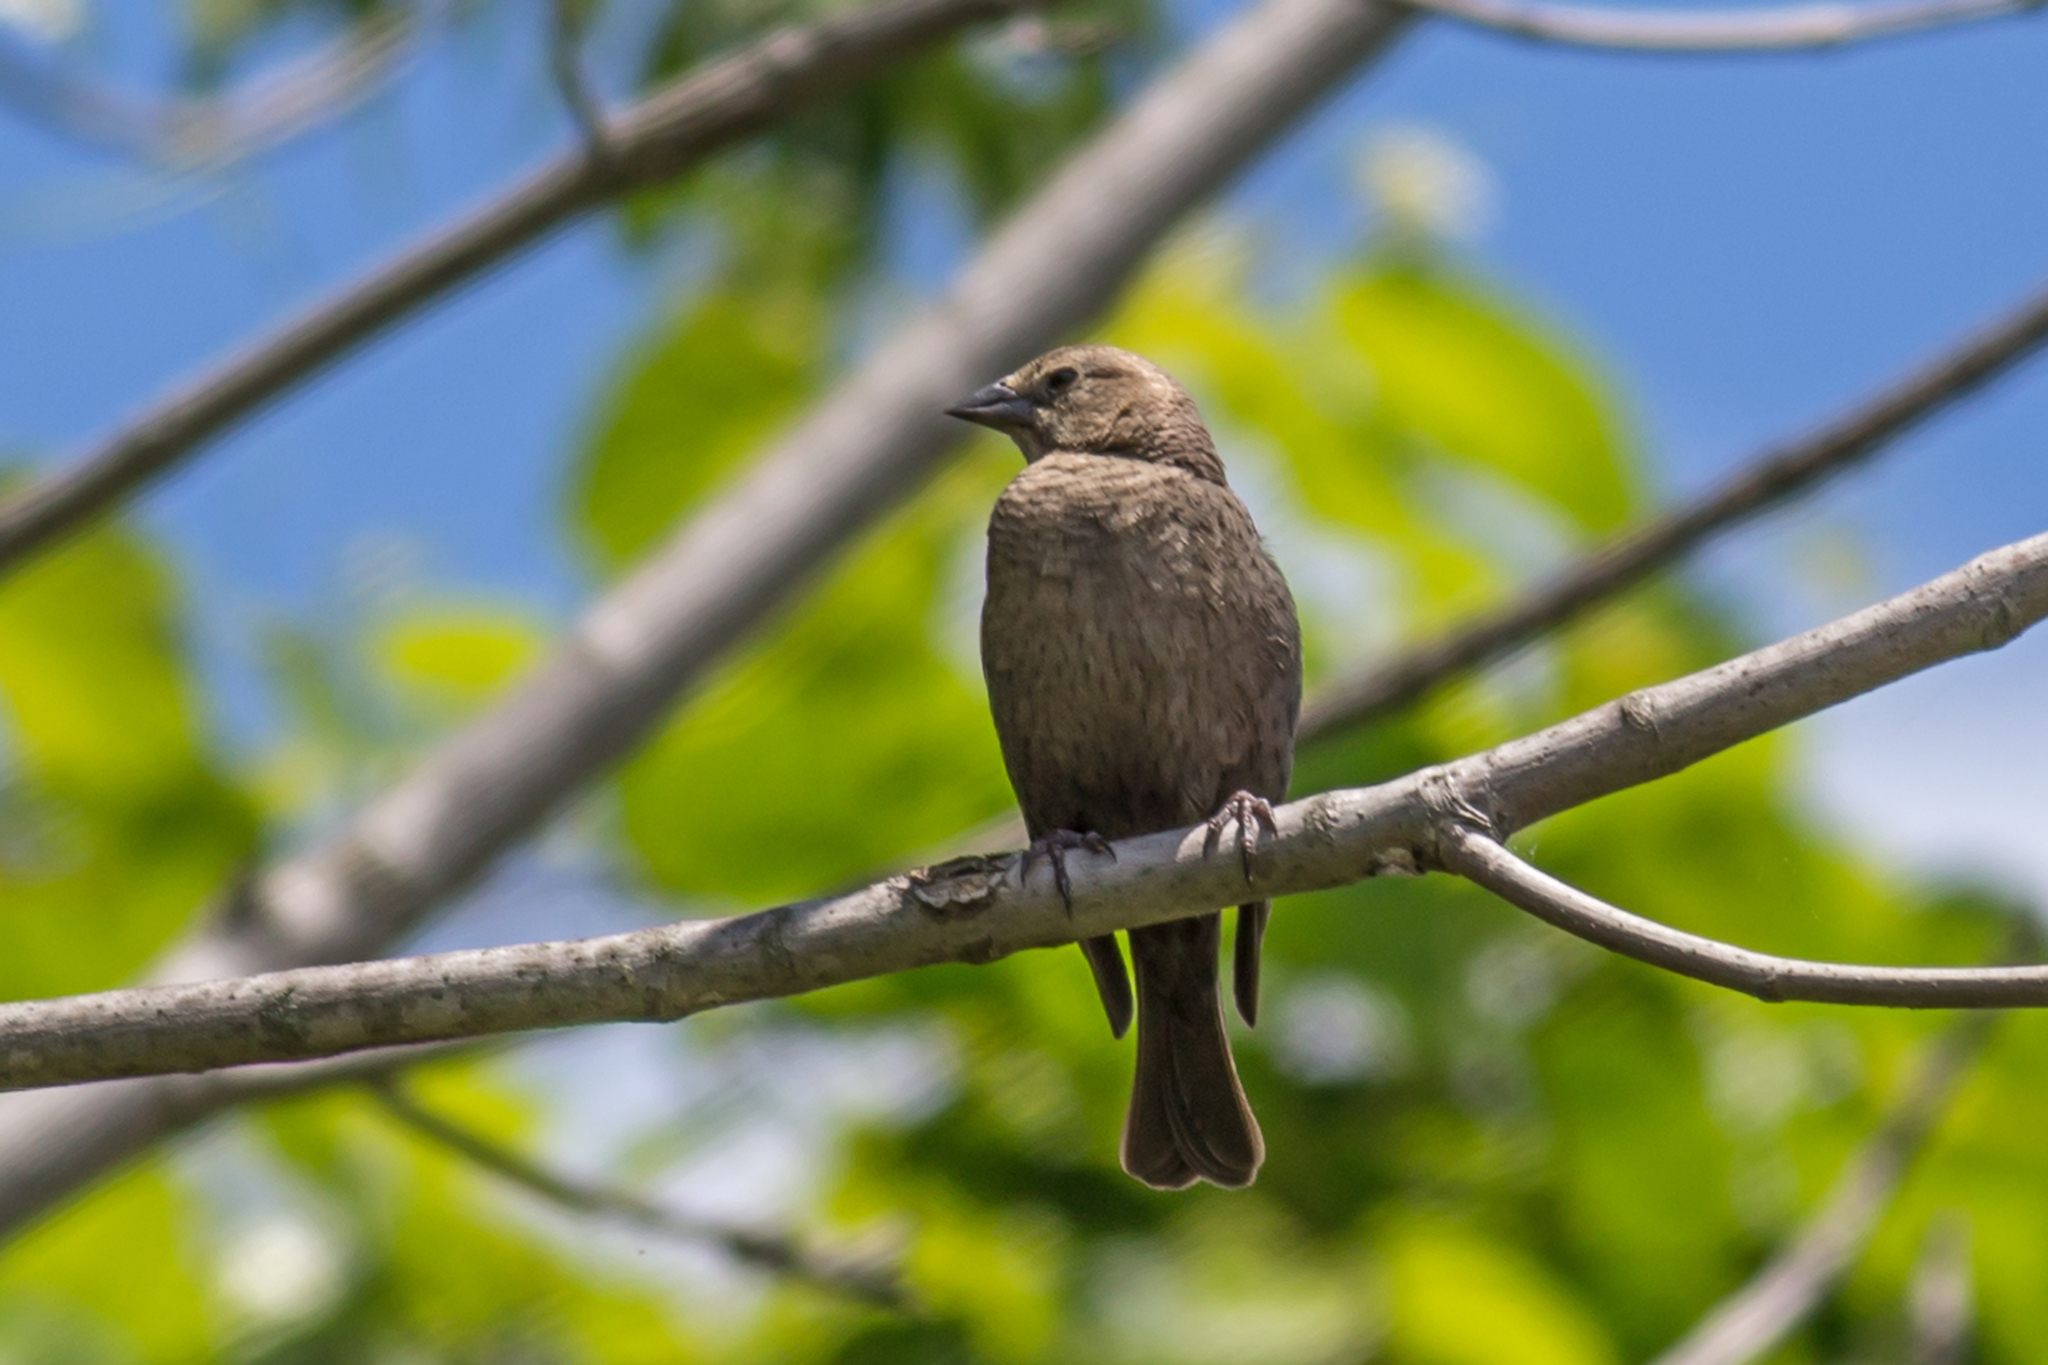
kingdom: Animalia
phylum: Chordata
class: Aves
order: Passeriformes
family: Icteridae
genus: Molothrus
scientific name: Molothrus ater
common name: Brown-headed cowbird
